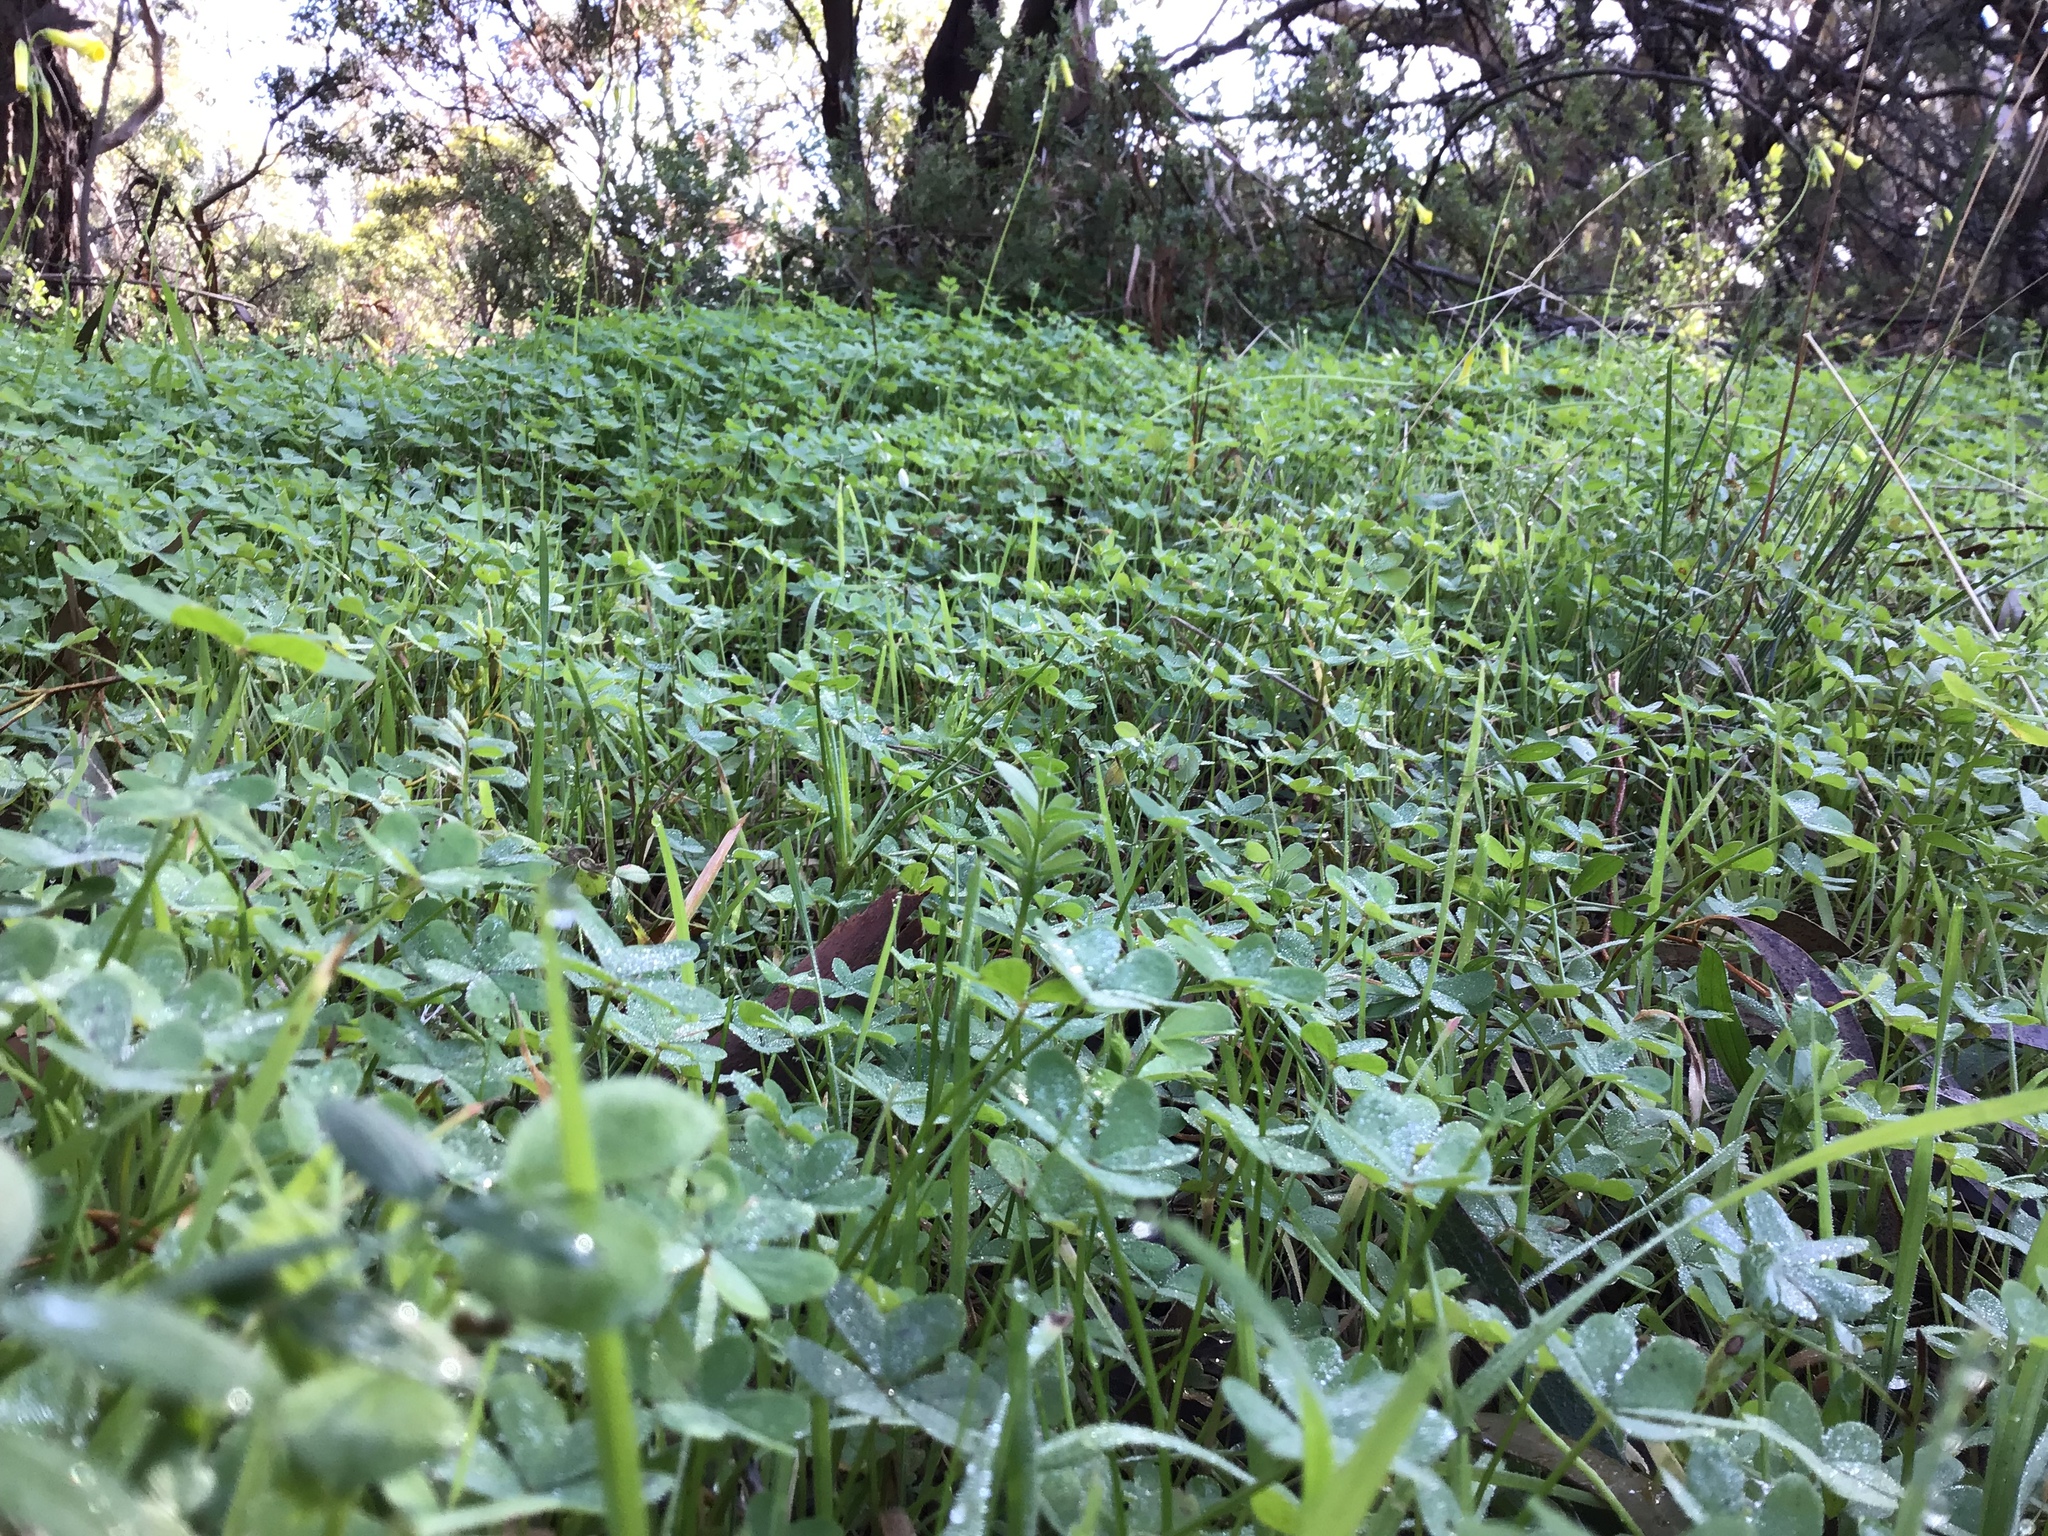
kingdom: Plantae
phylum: Tracheophyta
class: Magnoliopsida
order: Oxalidales
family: Oxalidaceae
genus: Oxalis
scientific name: Oxalis pes-caprae
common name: Bermuda-buttercup
